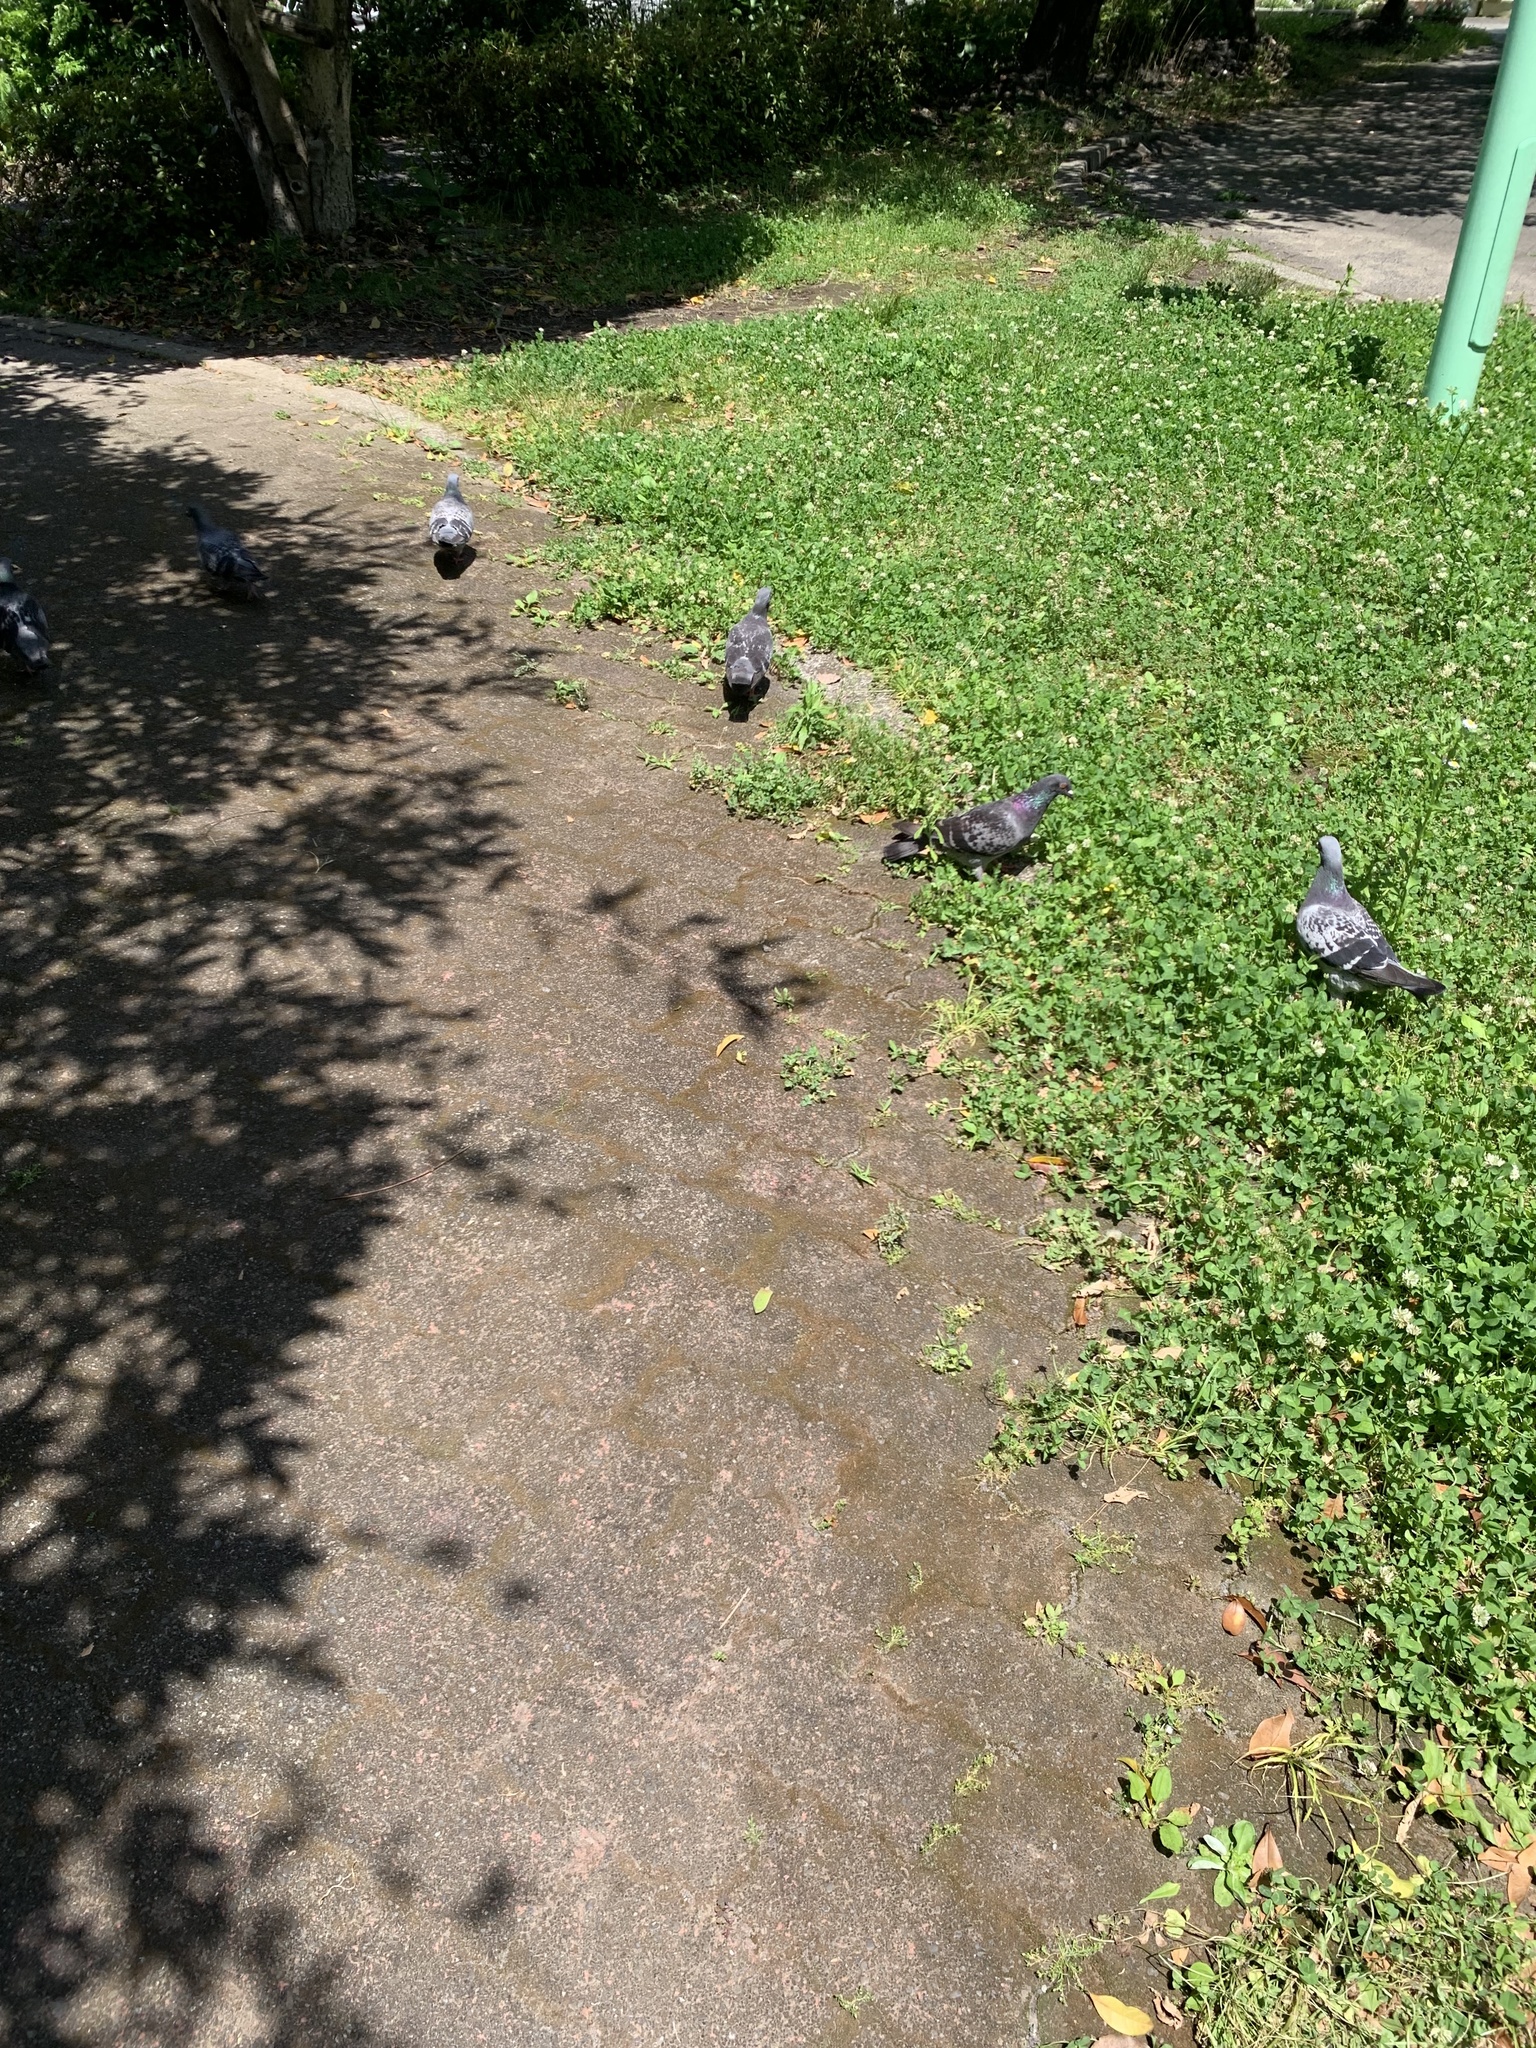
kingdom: Animalia
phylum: Chordata
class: Aves
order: Columbiformes
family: Columbidae
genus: Columba
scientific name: Columba livia
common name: Rock pigeon
